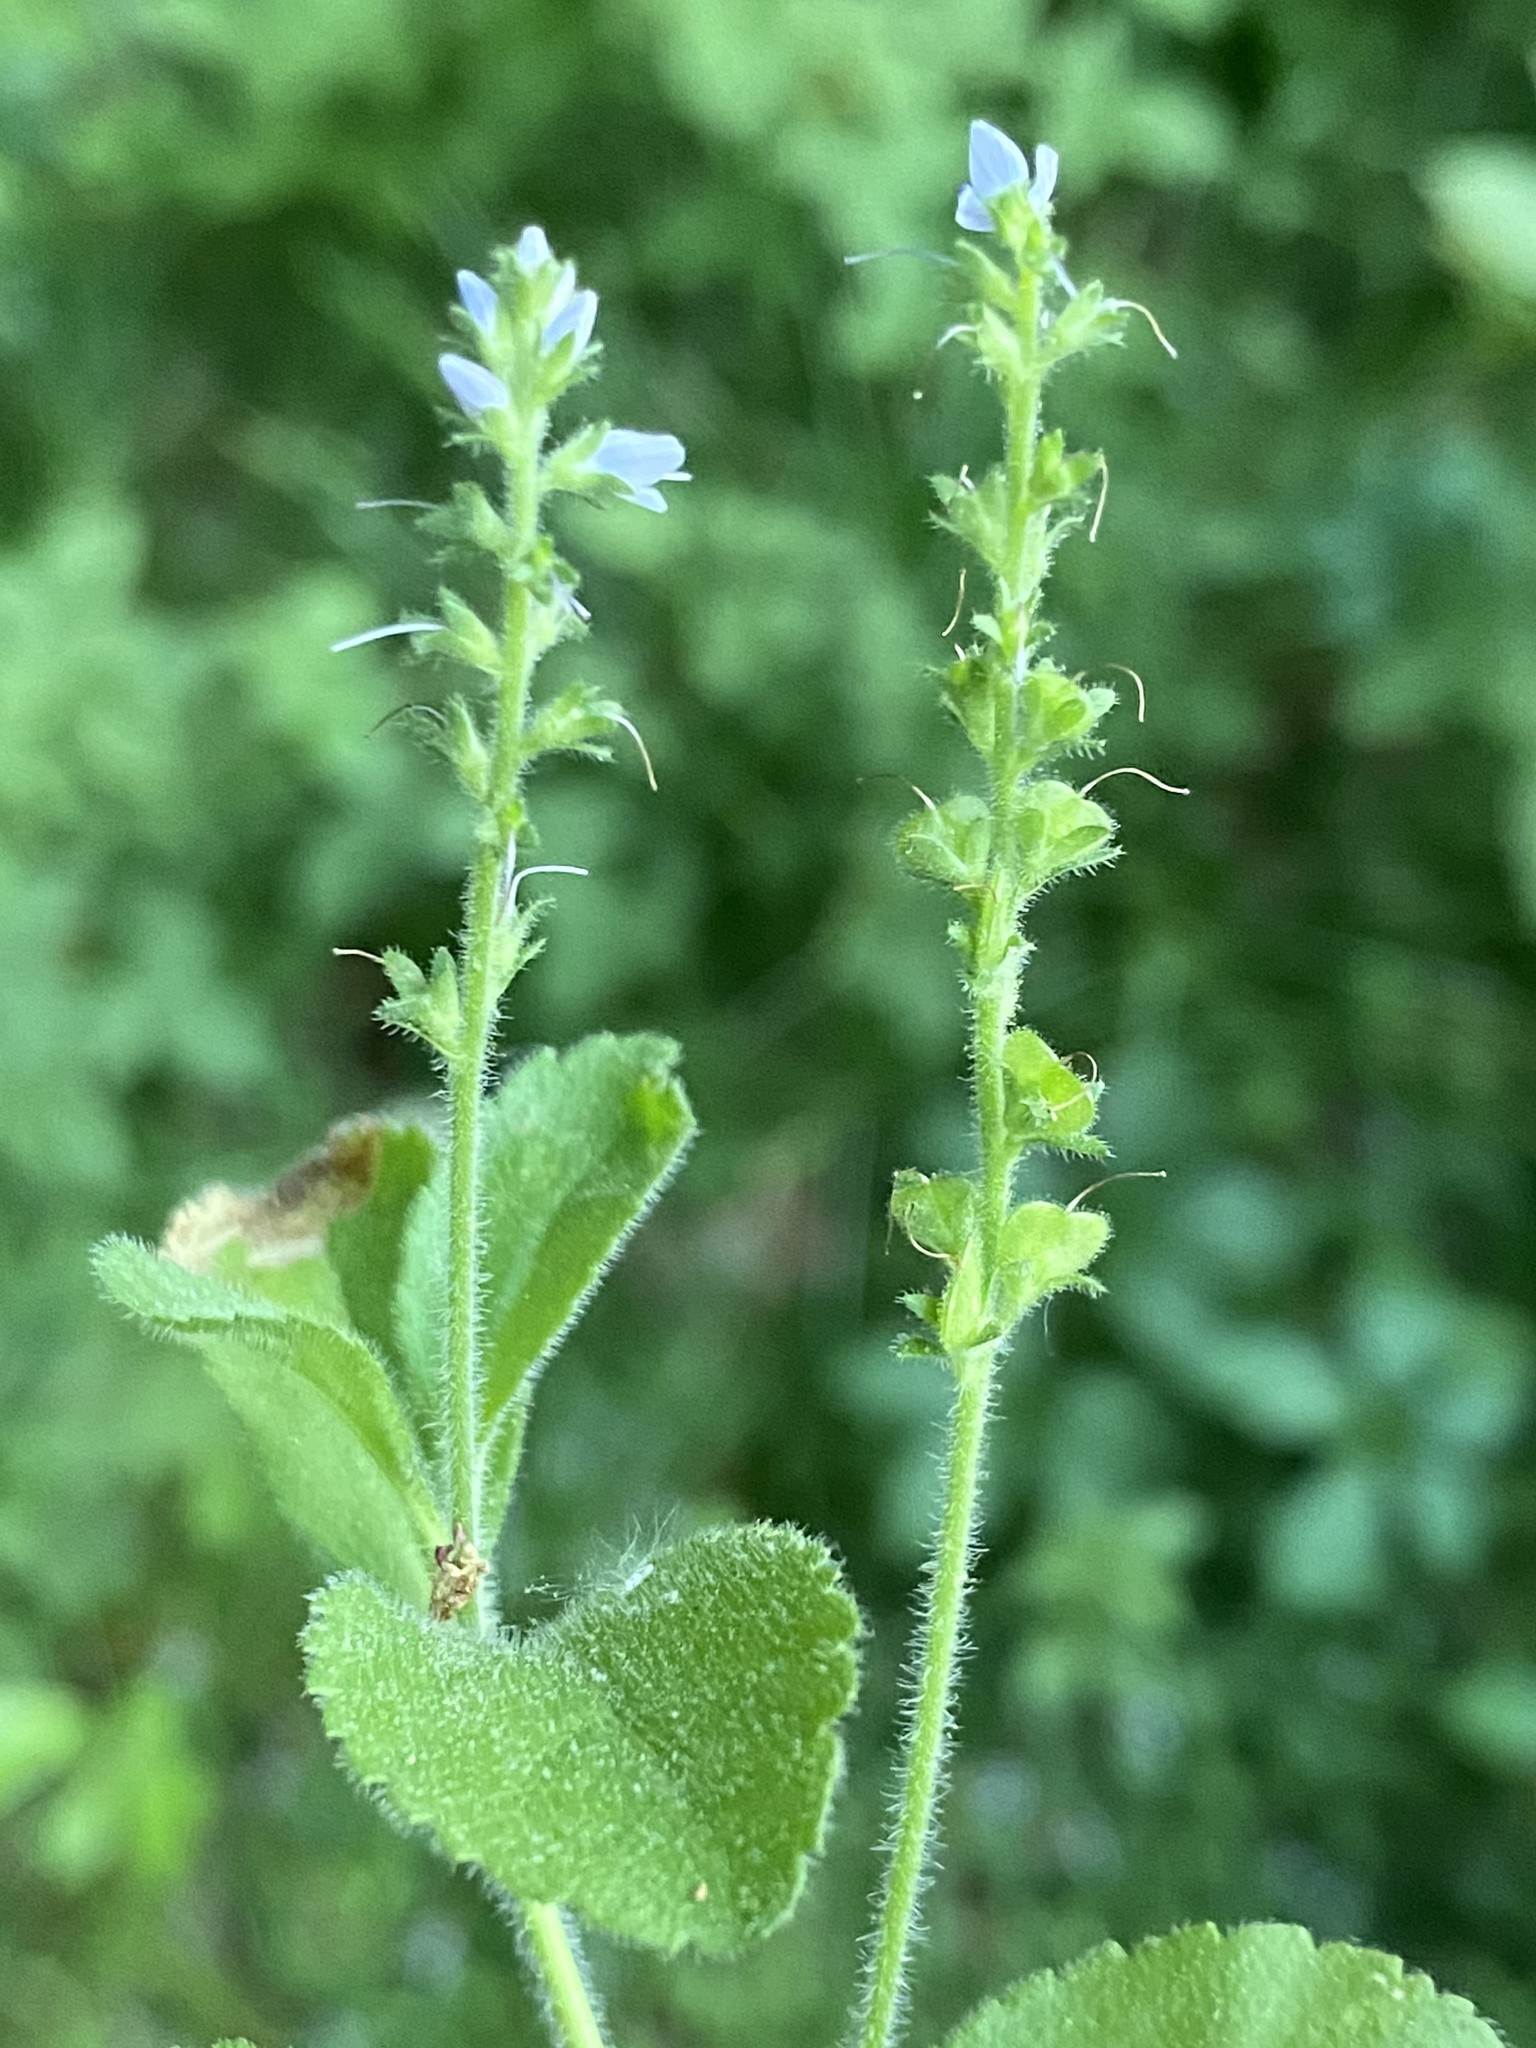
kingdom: Plantae
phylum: Tracheophyta
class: Magnoliopsida
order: Lamiales
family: Plantaginaceae
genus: Veronica
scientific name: Veronica officinalis
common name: Common speedwell
